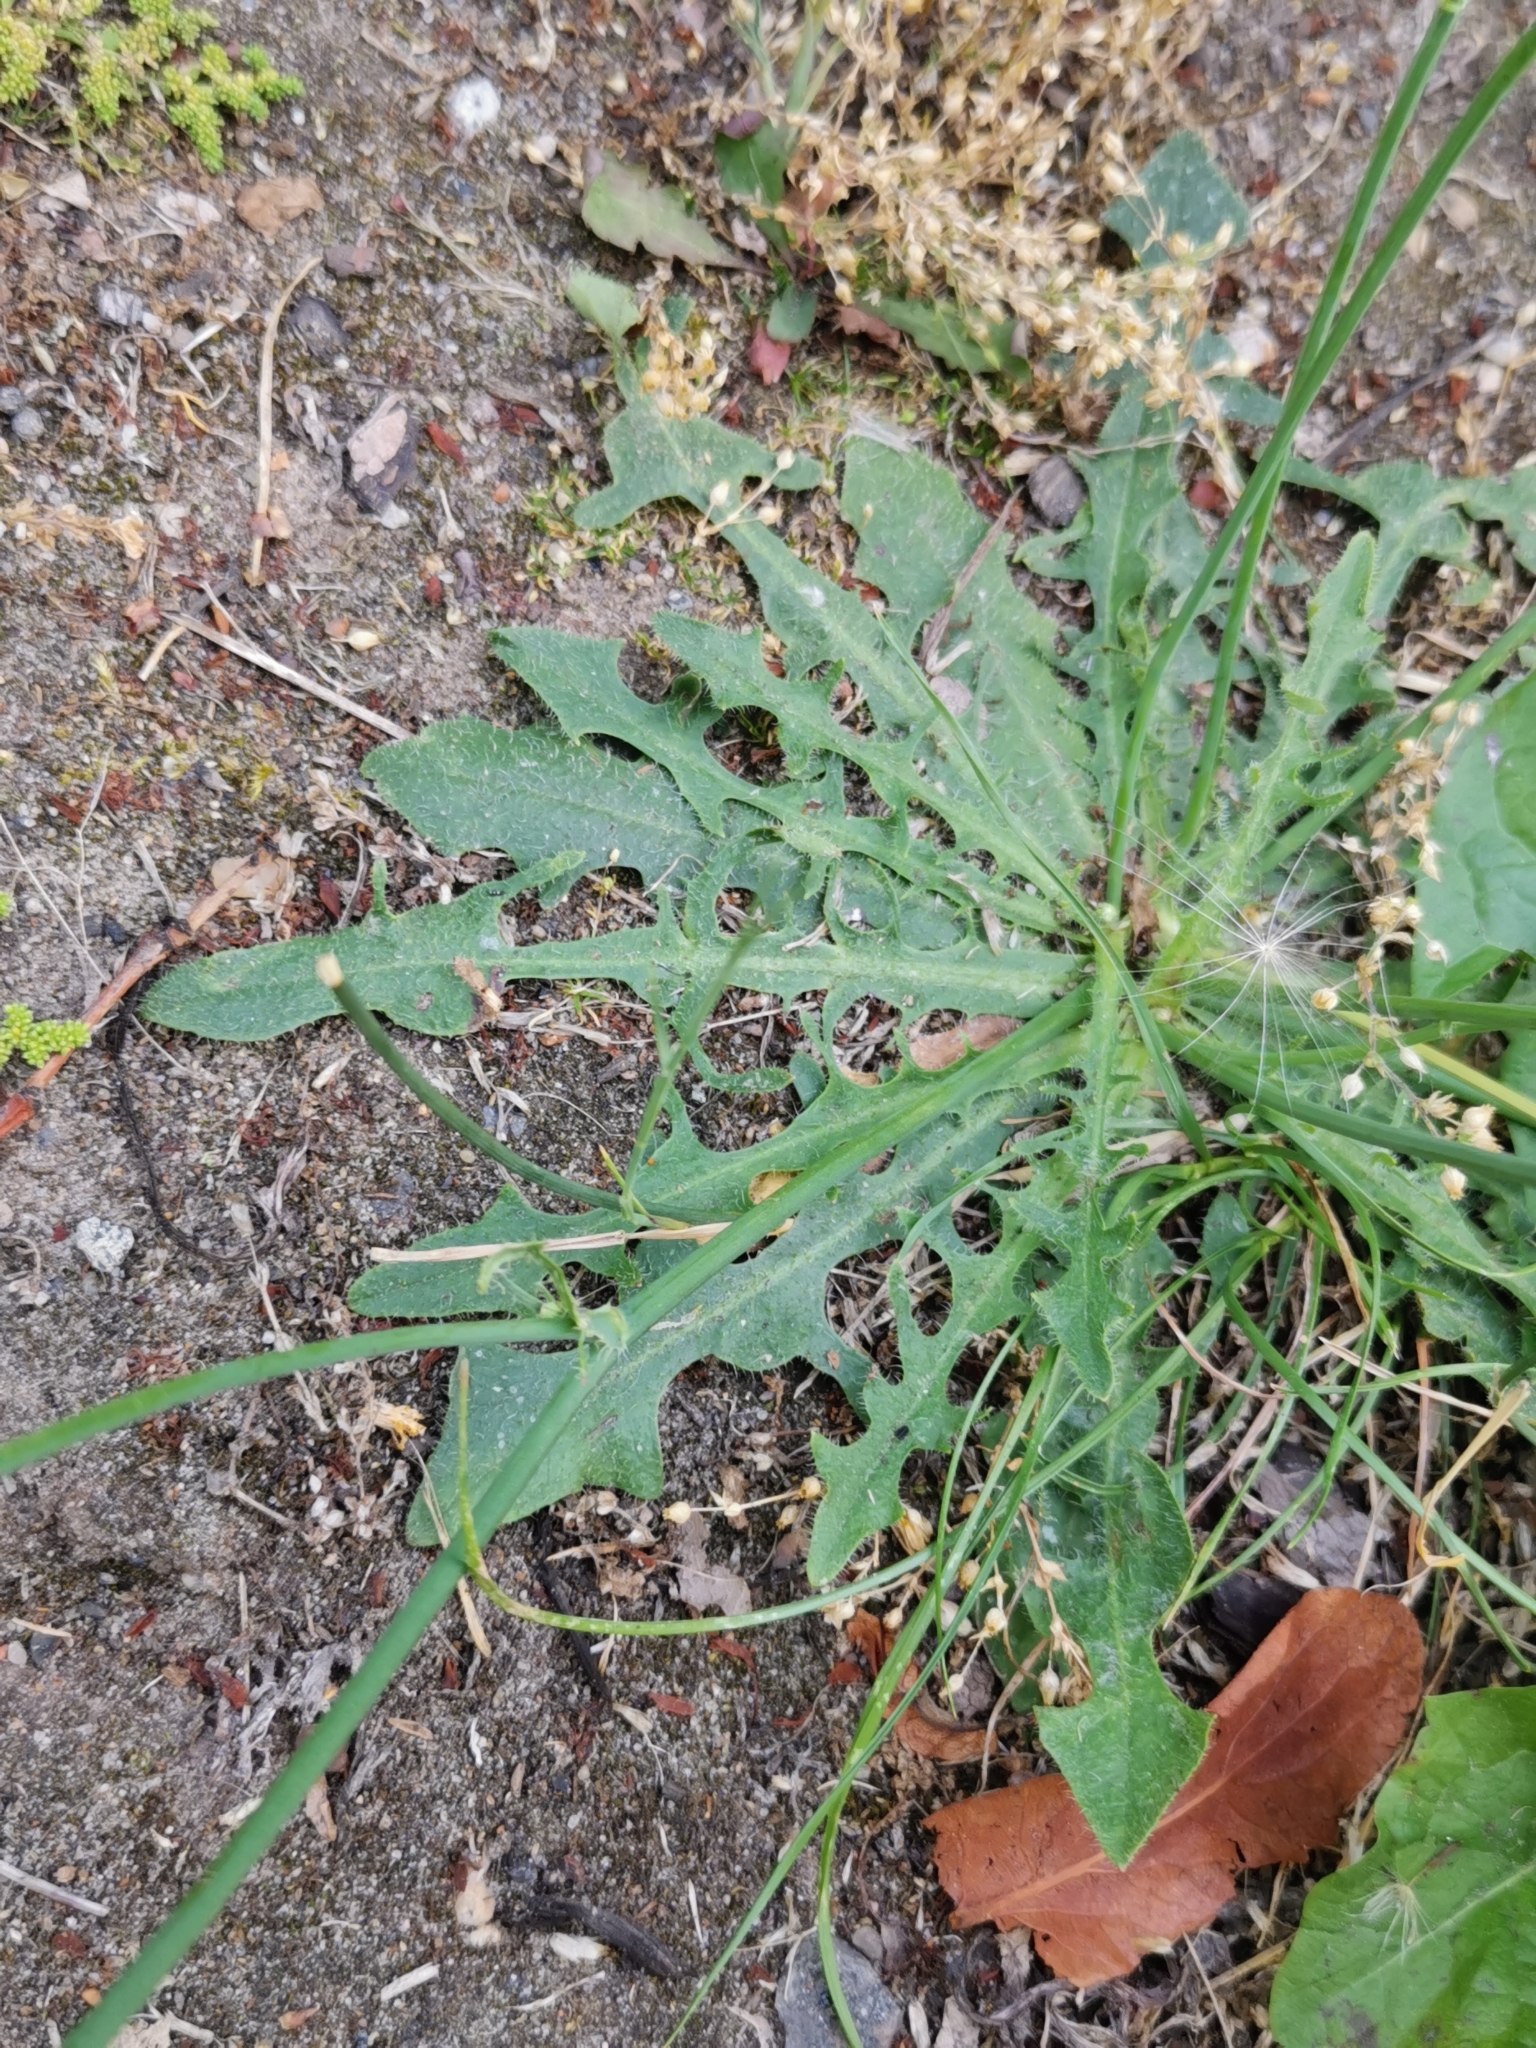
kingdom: Plantae
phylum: Tracheophyta
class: Magnoliopsida
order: Asterales
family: Asteraceae
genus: Hypochaeris
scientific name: Hypochaeris radicata
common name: Flatweed
